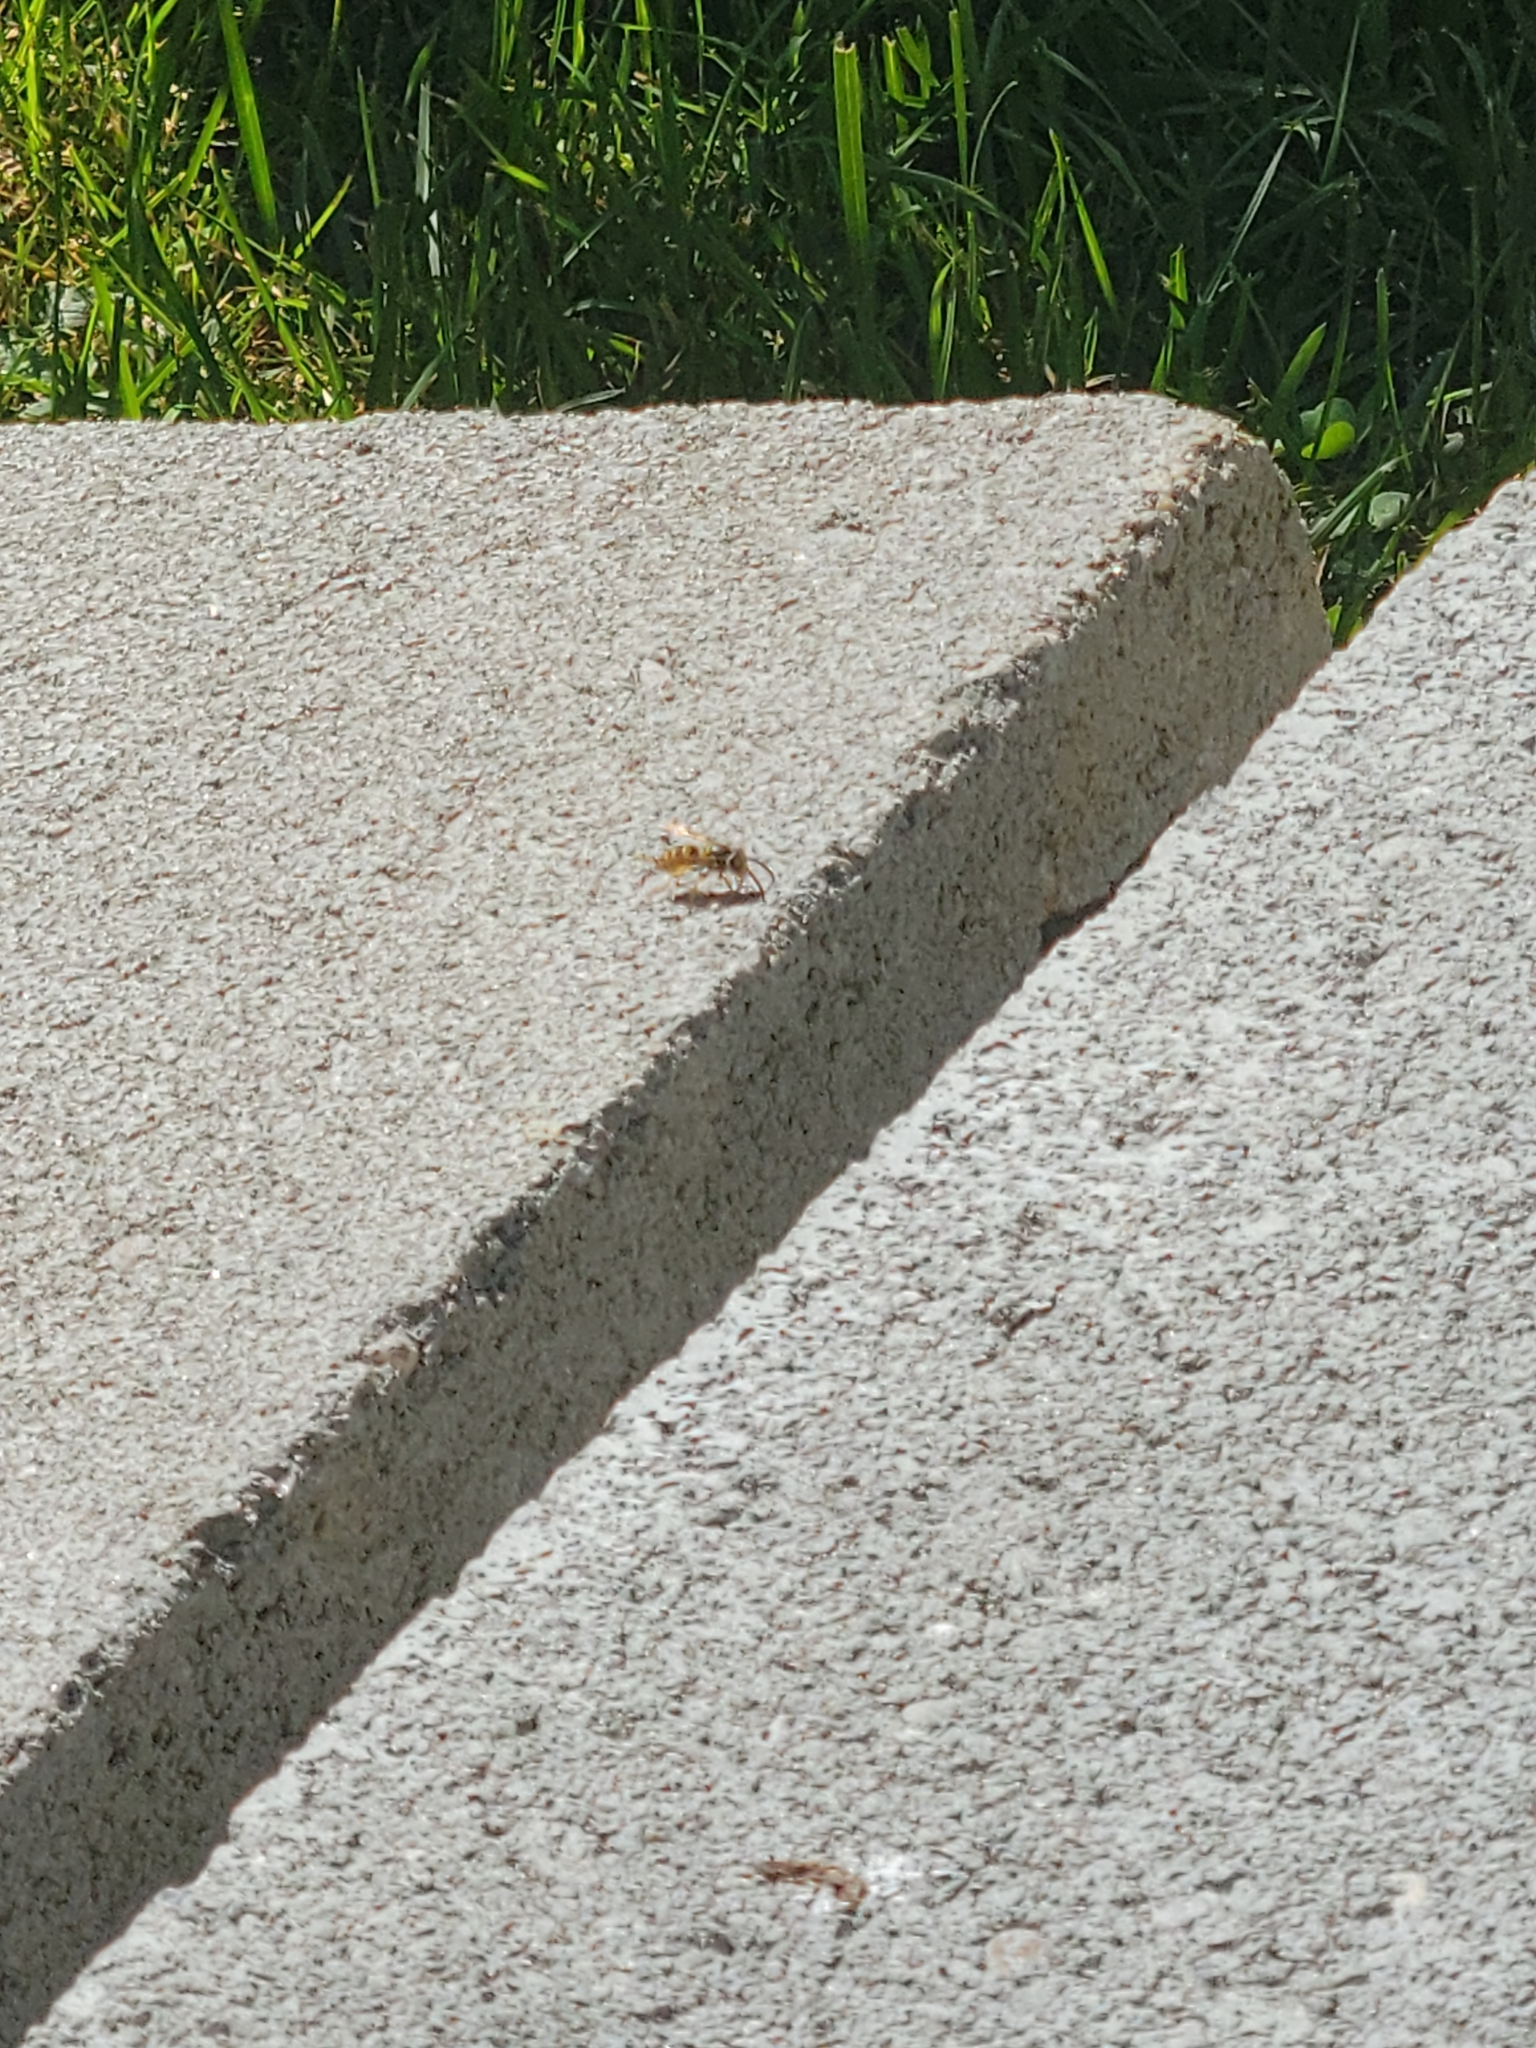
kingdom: Animalia
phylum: Arthropoda
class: Insecta
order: Hymenoptera
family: Vespidae
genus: Vespula
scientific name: Vespula maculifrons
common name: Eastern yellowjacket
